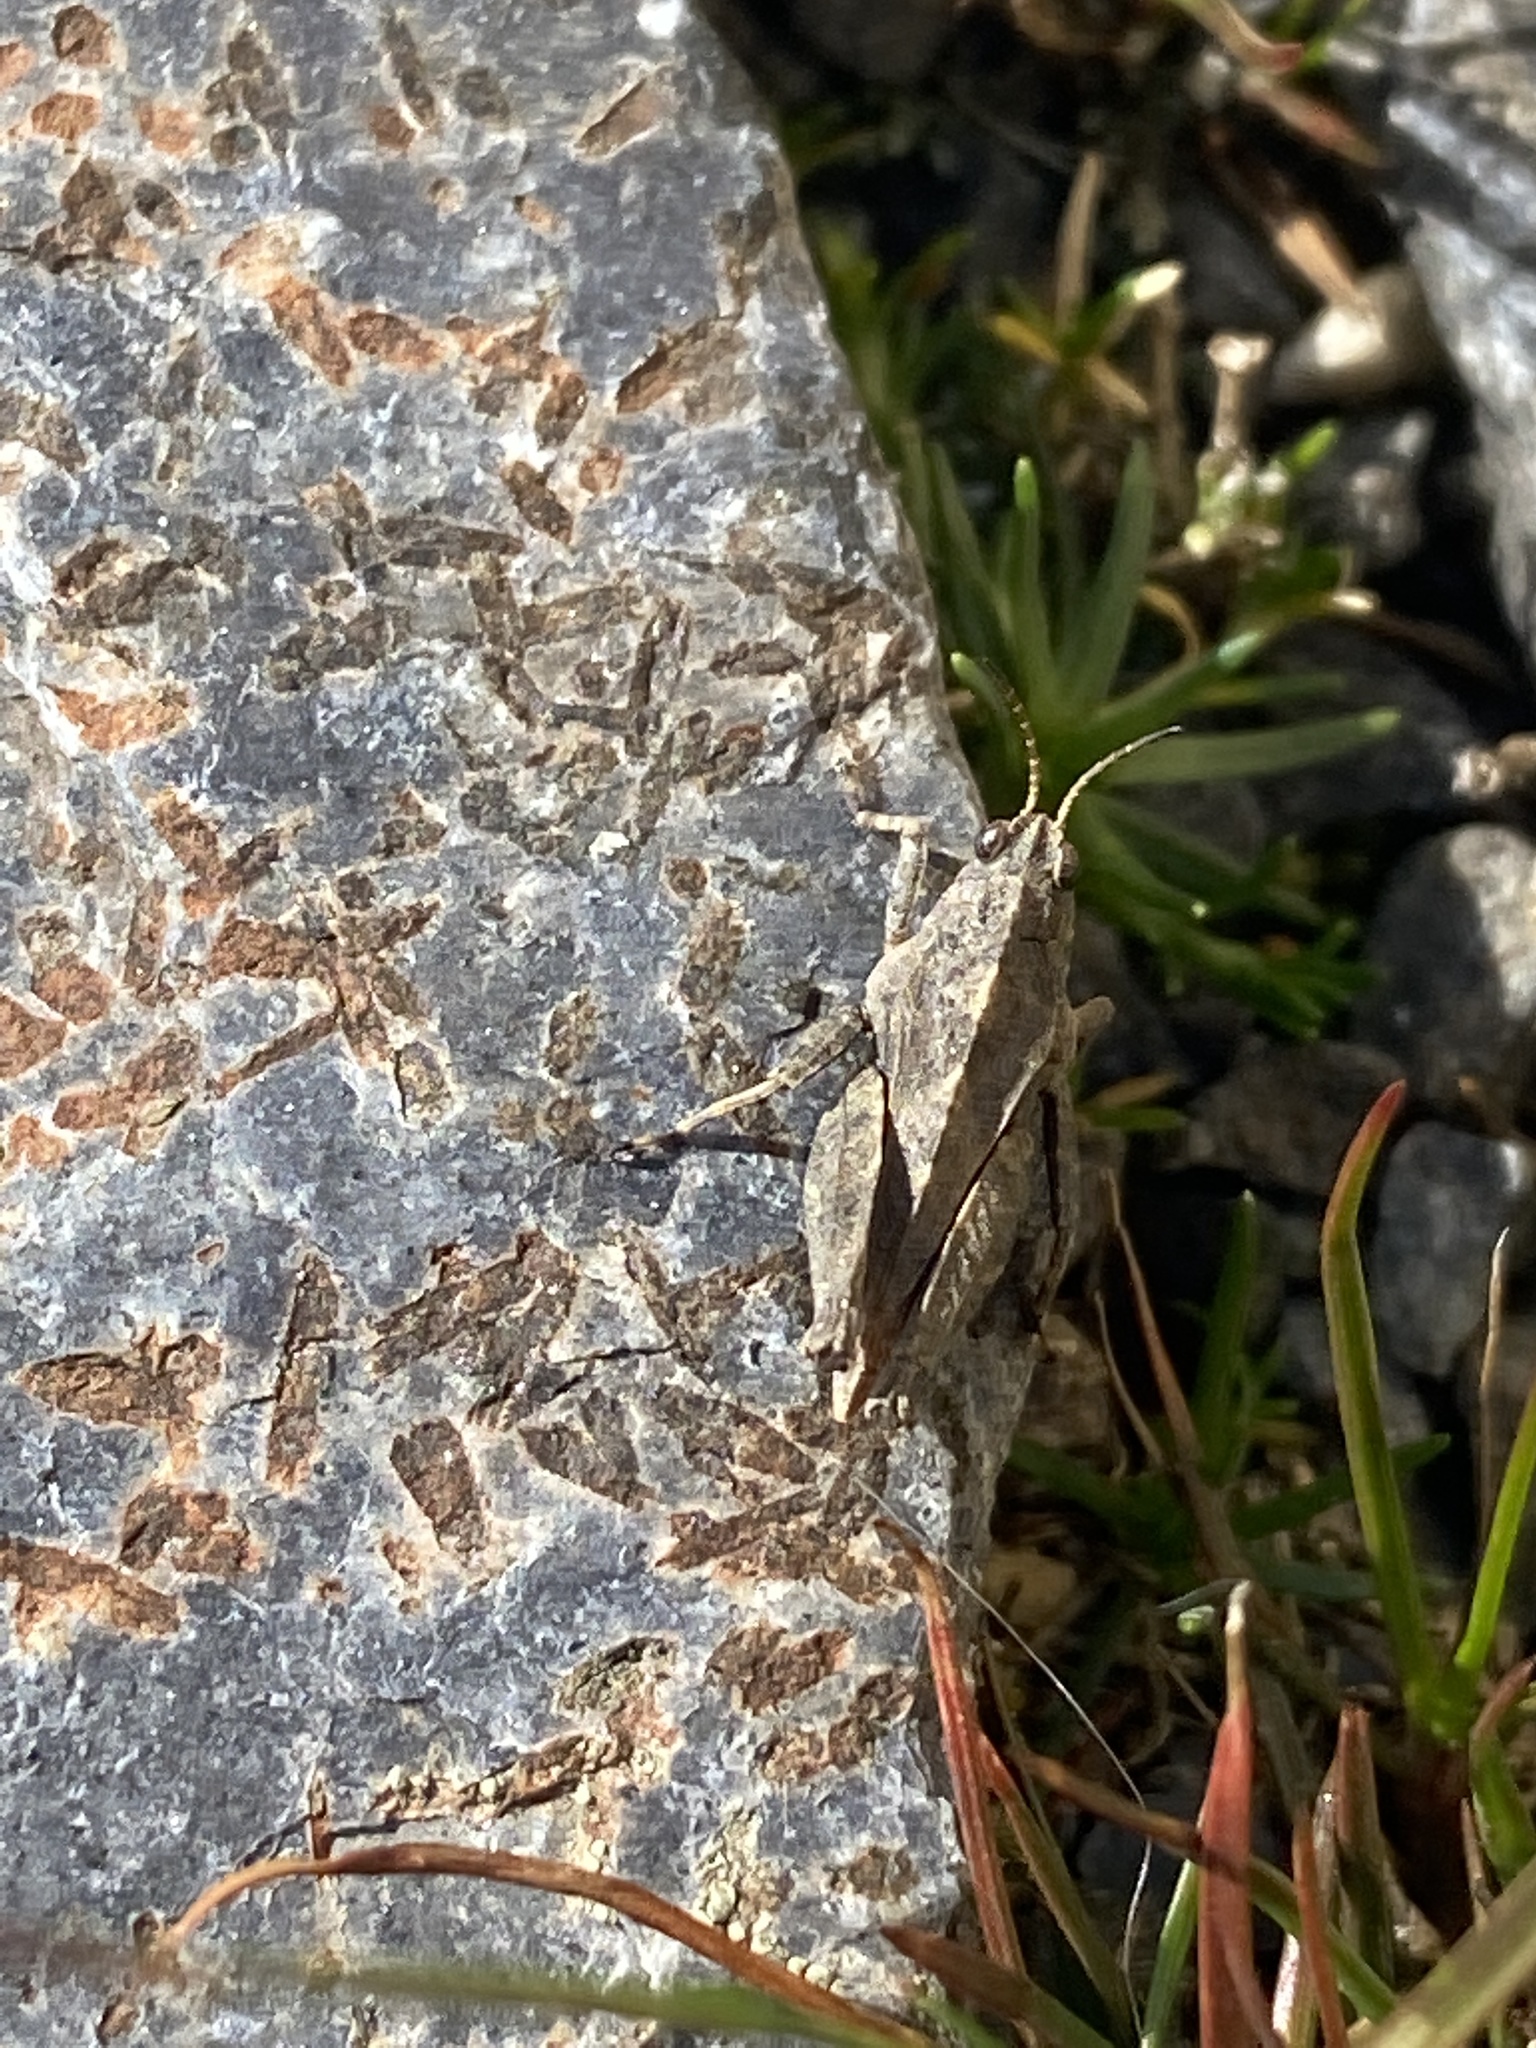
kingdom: Animalia
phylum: Arthropoda
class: Insecta
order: Orthoptera
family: Tetrigidae
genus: Tetrix
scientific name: Tetrix tenuicornis
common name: Long-horned groundhopper
